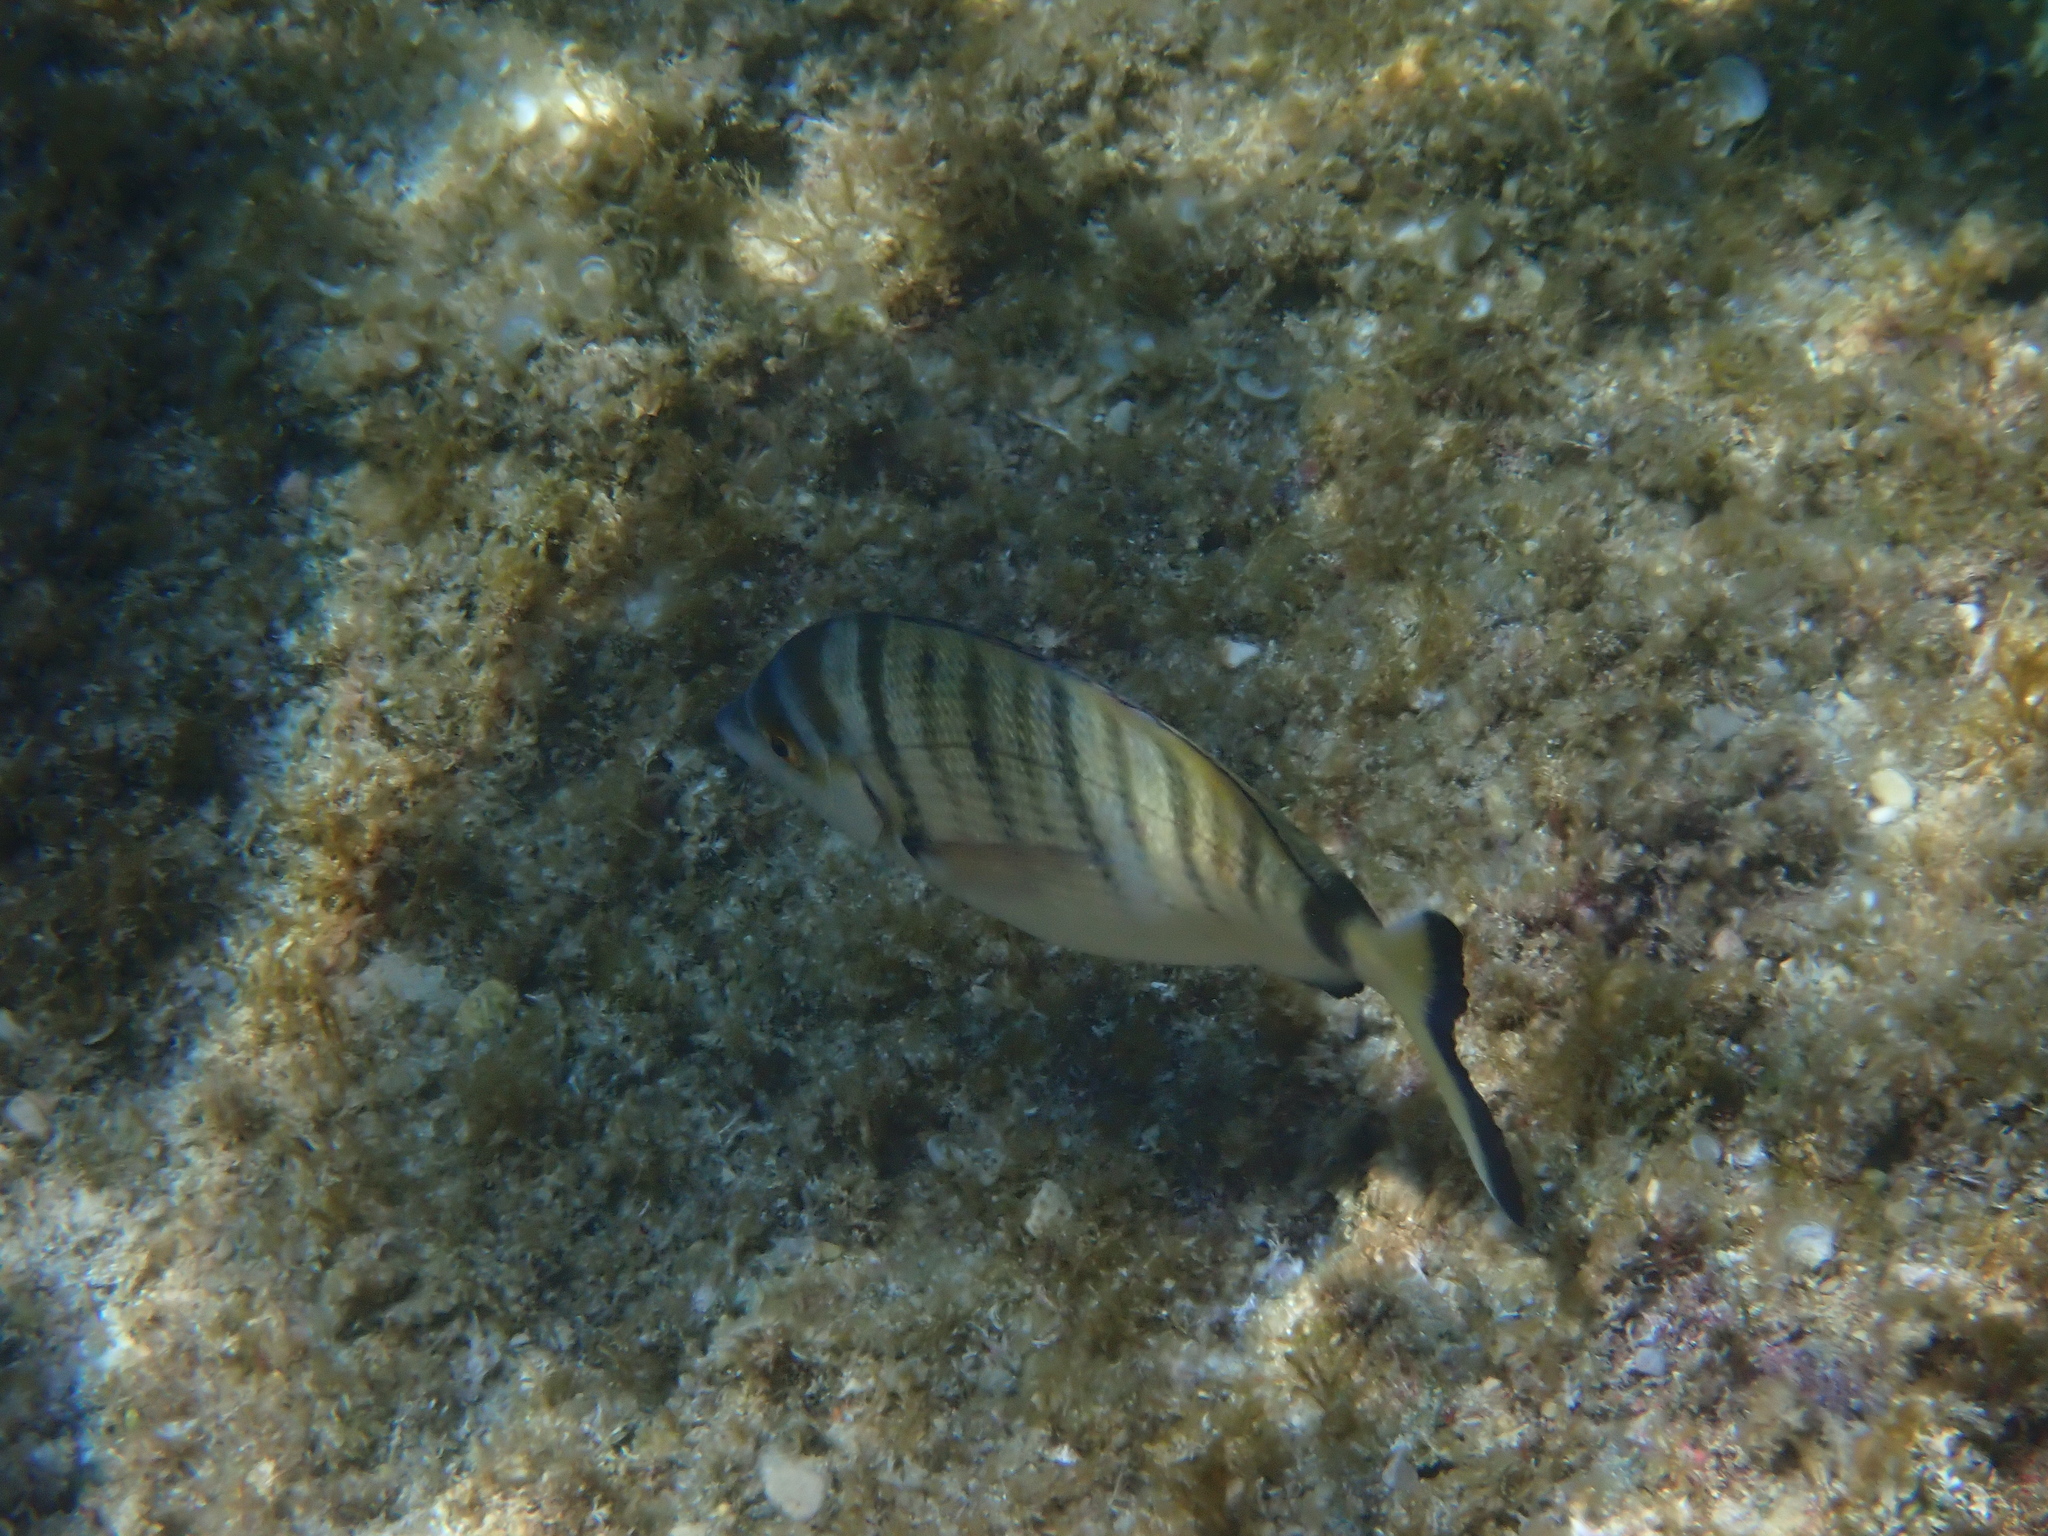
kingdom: Animalia
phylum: Chordata
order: Perciformes
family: Sparidae
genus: Diplodus
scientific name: Diplodus puntazzo
